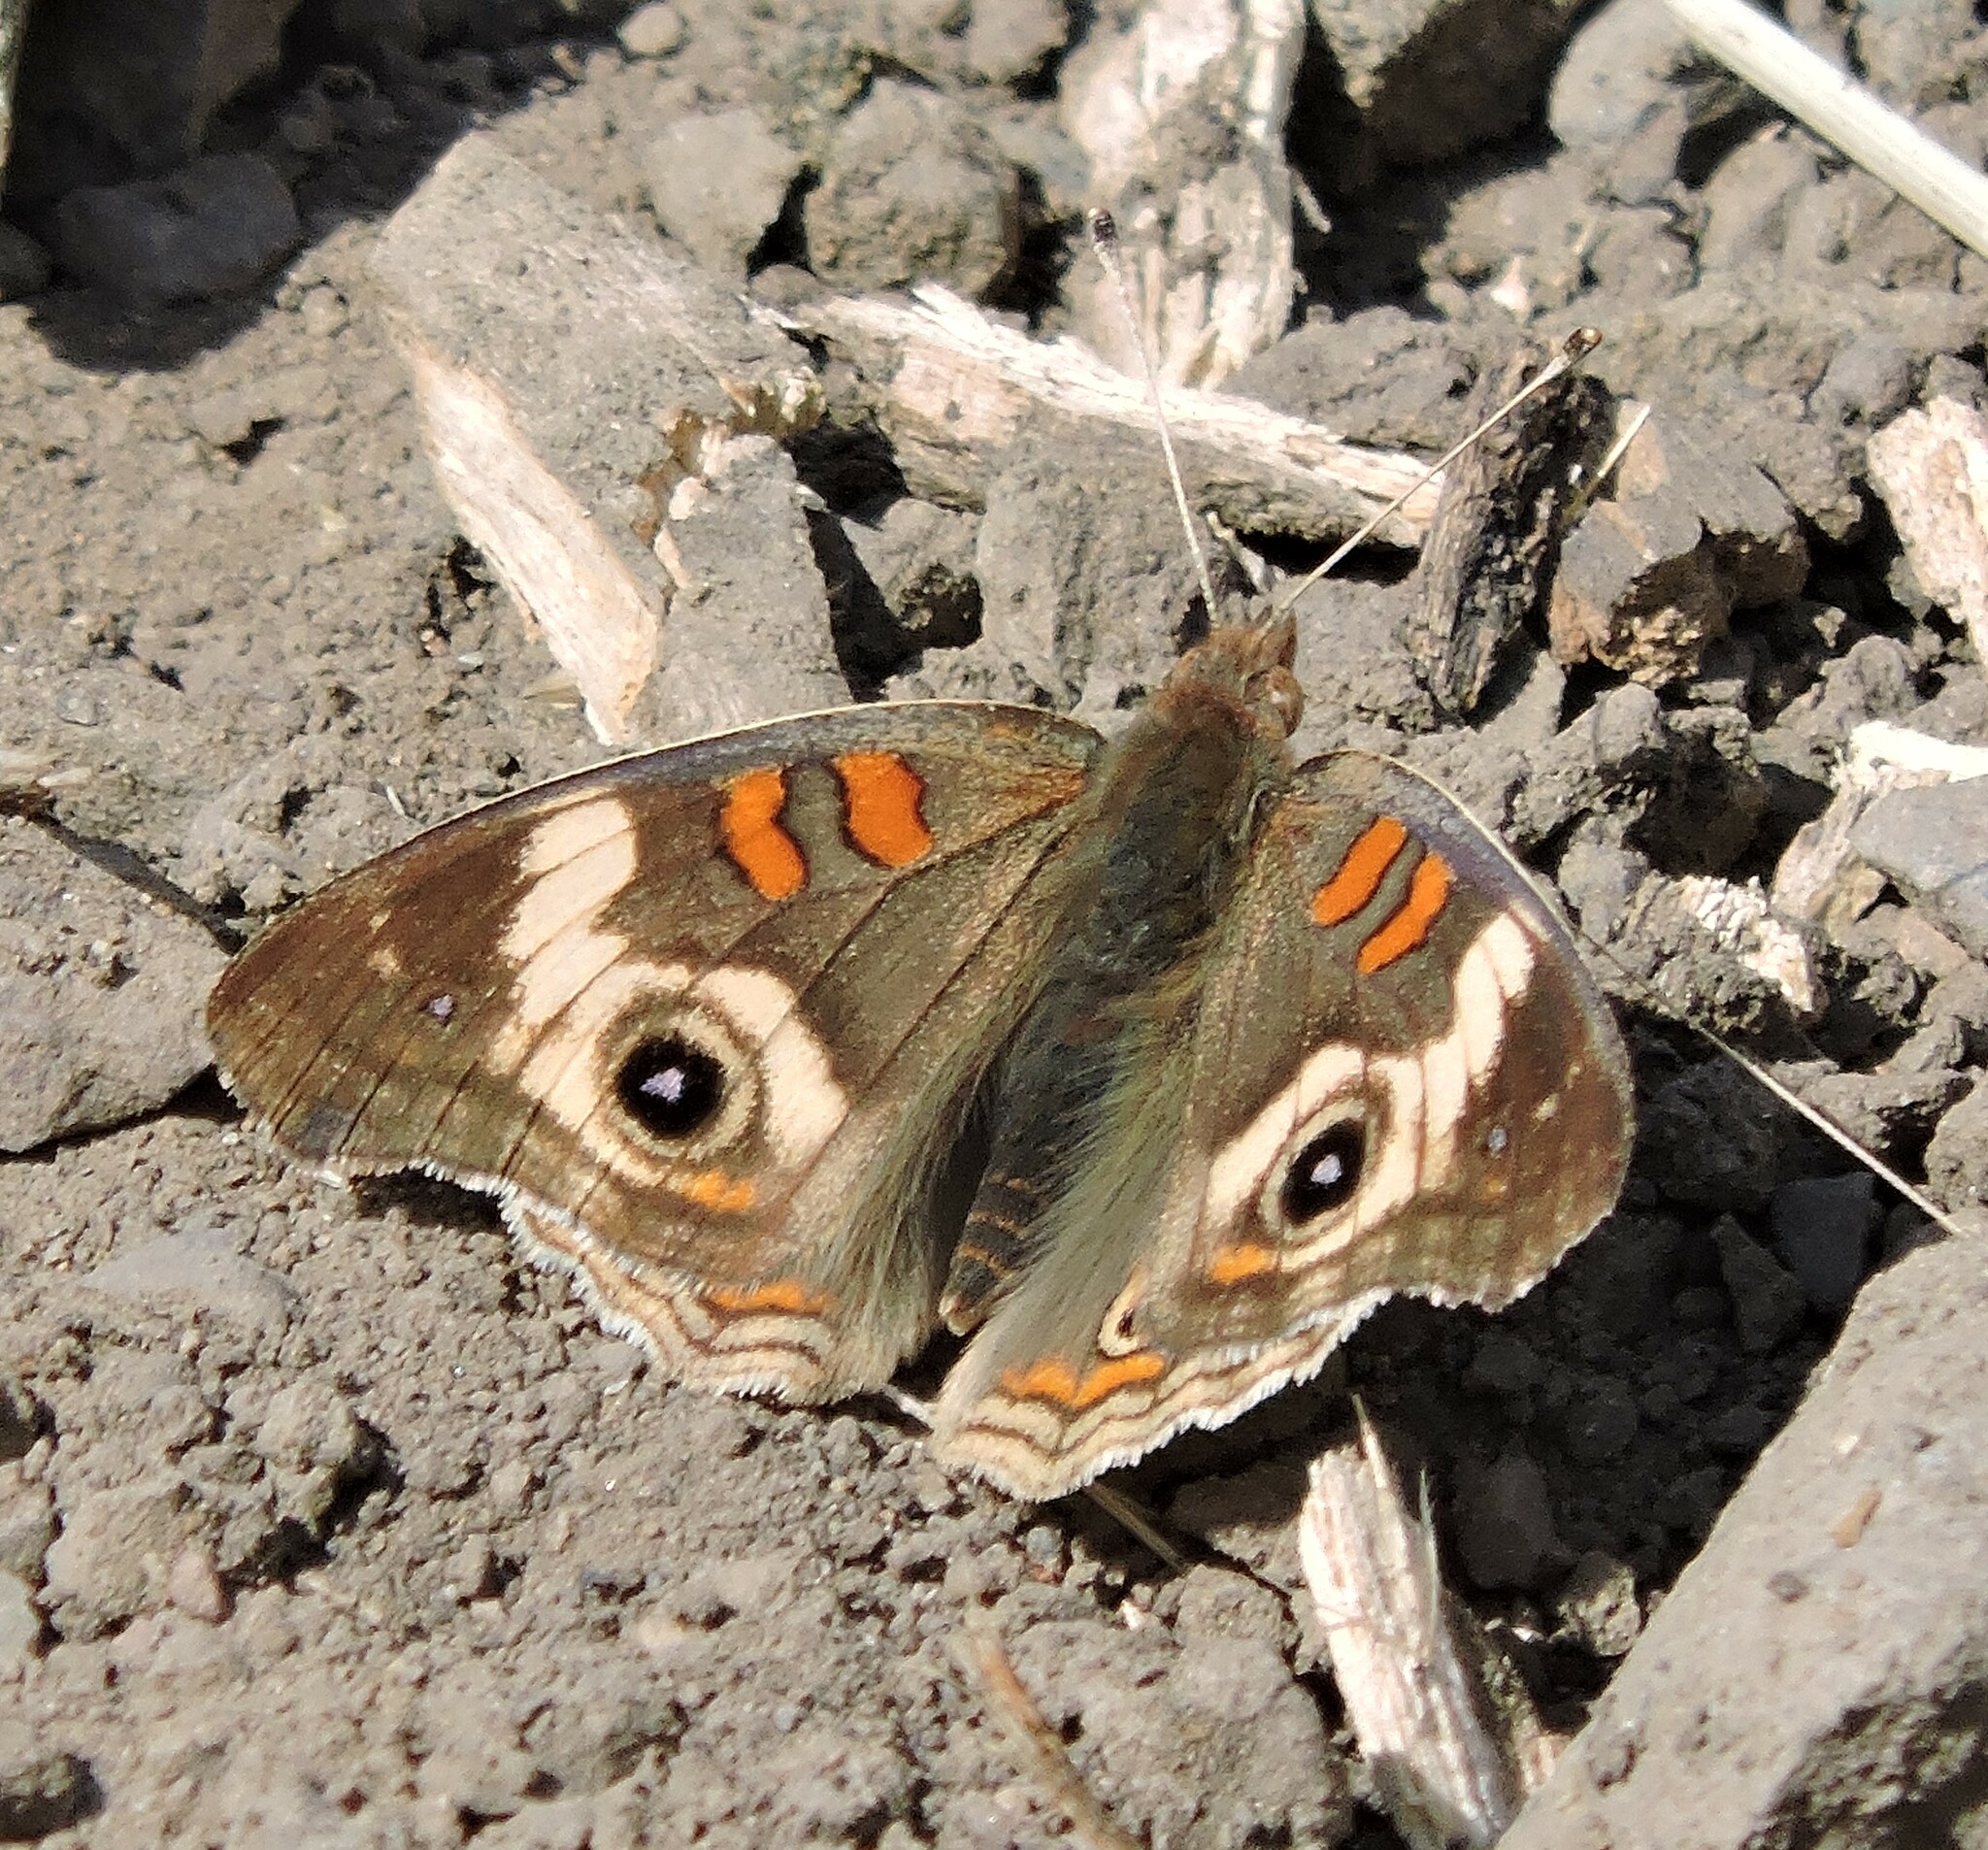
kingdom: Animalia
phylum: Arthropoda
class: Insecta
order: Lepidoptera
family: Nymphalidae
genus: Junonia
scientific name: Junonia grisea
